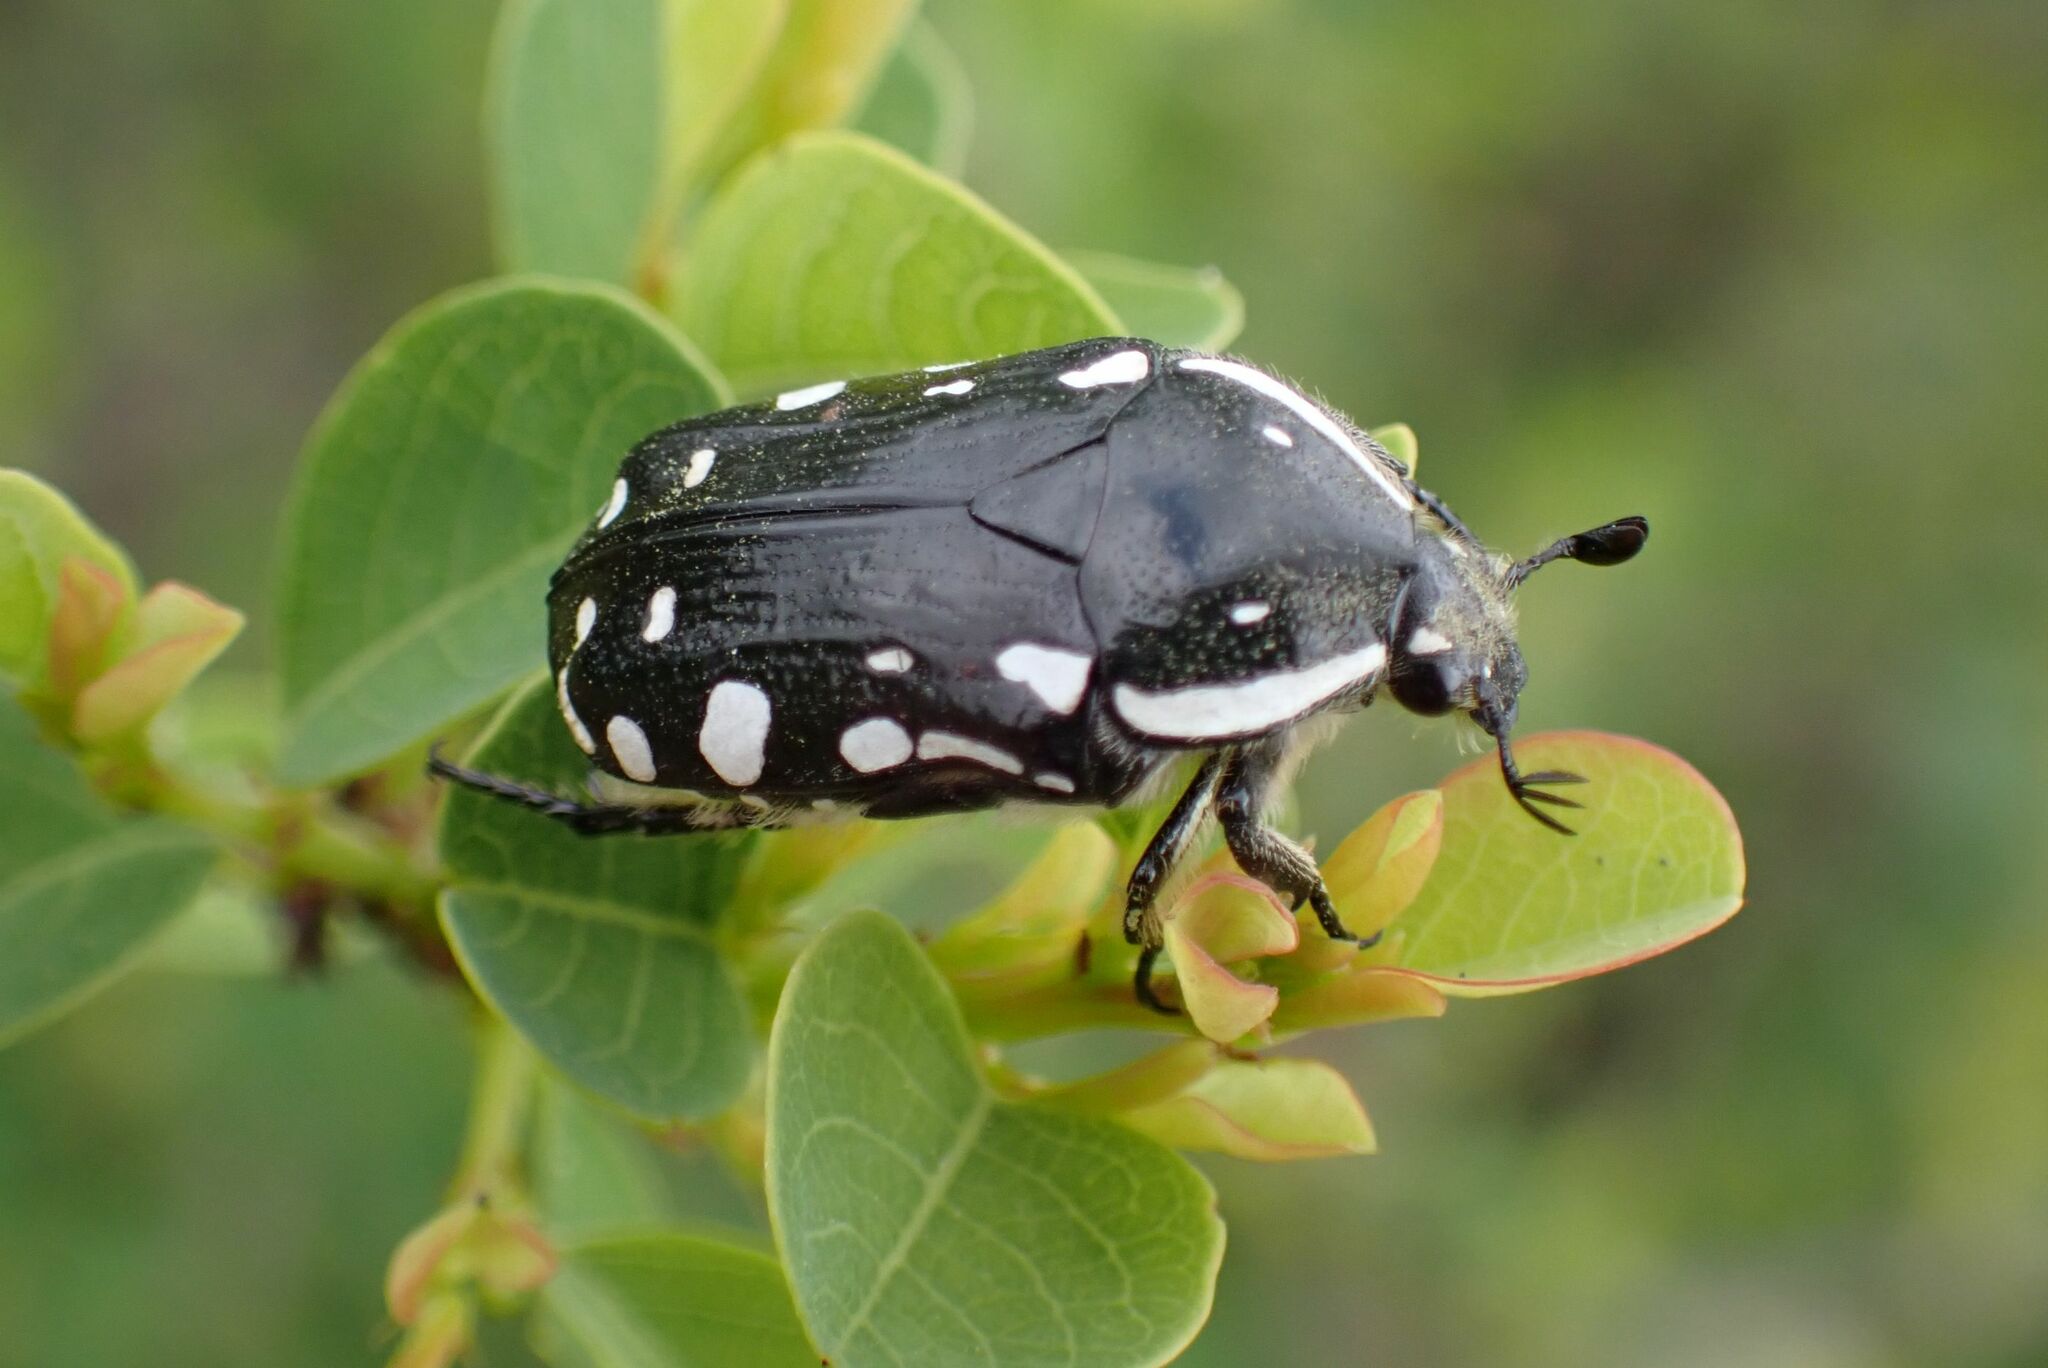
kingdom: Animalia
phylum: Arthropoda
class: Insecta
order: Coleoptera
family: Scarabaeidae
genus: Rhabdotis
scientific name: Rhabdotis albinigra
